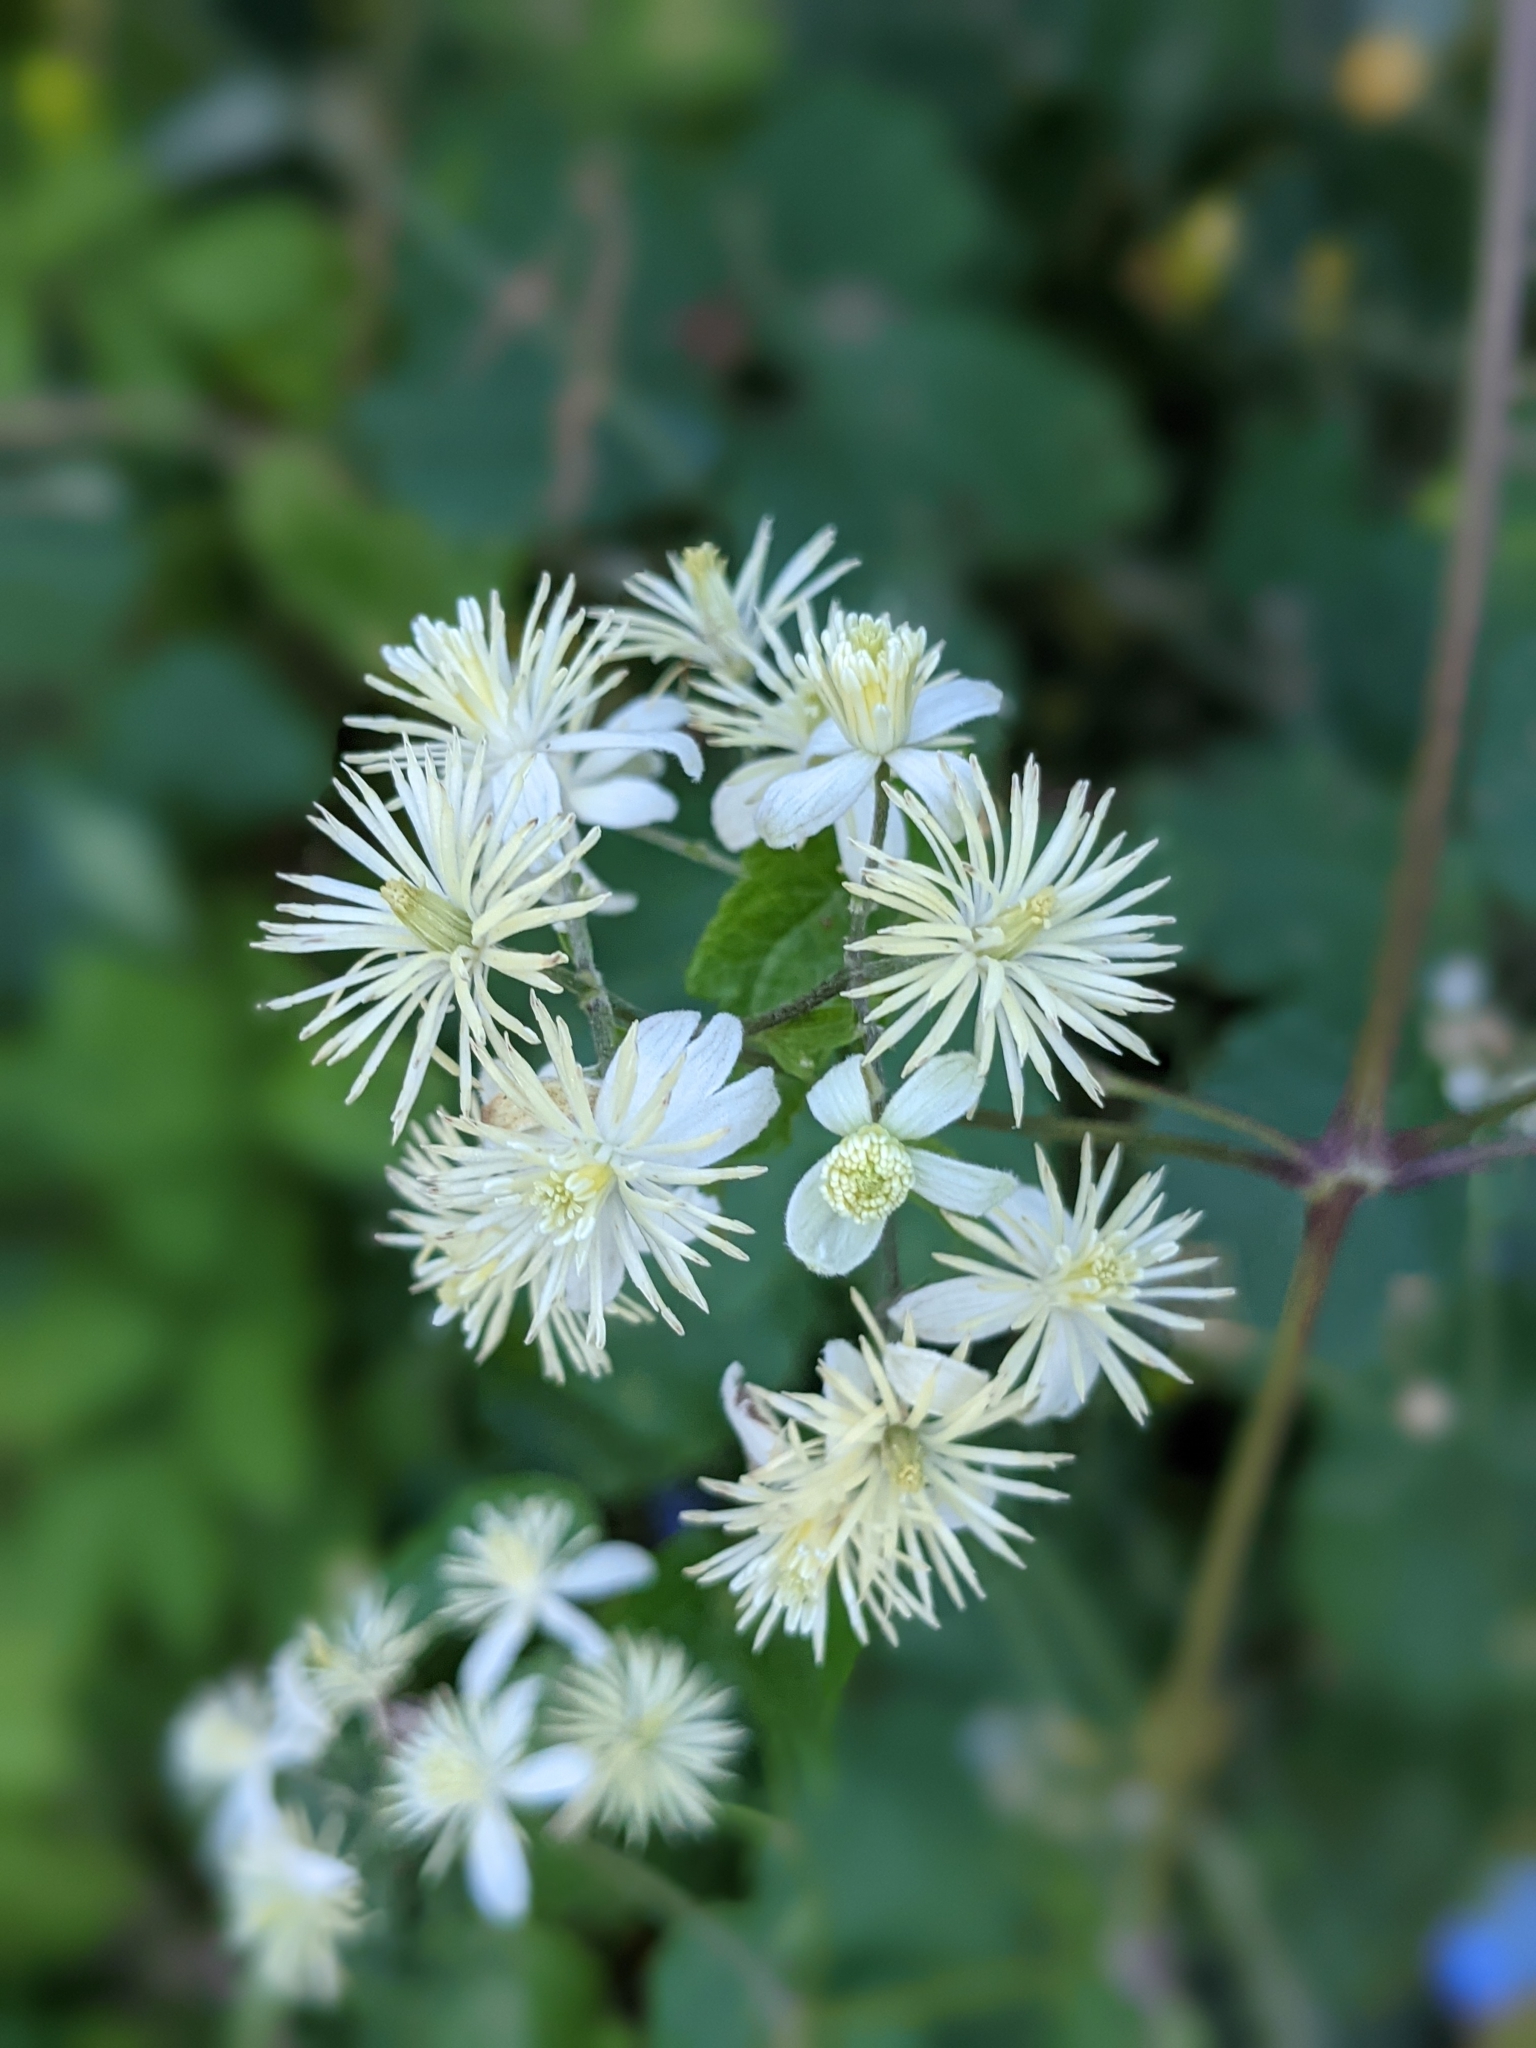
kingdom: Plantae
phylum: Tracheophyta
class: Magnoliopsida
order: Ranunculales
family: Ranunculaceae
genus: Clematis
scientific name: Clematis vitalba
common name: Evergreen clematis
